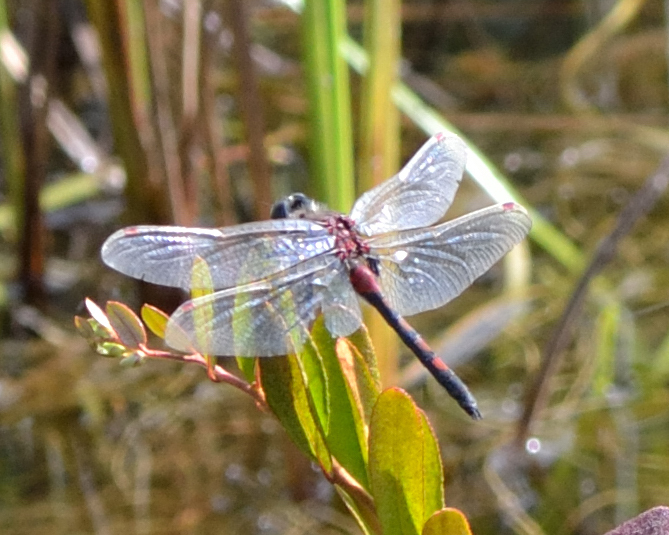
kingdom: Animalia
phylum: Arthropoda
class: Insecta
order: Odonata
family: Libellulidae
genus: Leucorrhinia
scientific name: Leucorrhinia rubicunda
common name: Ruby whiteface
